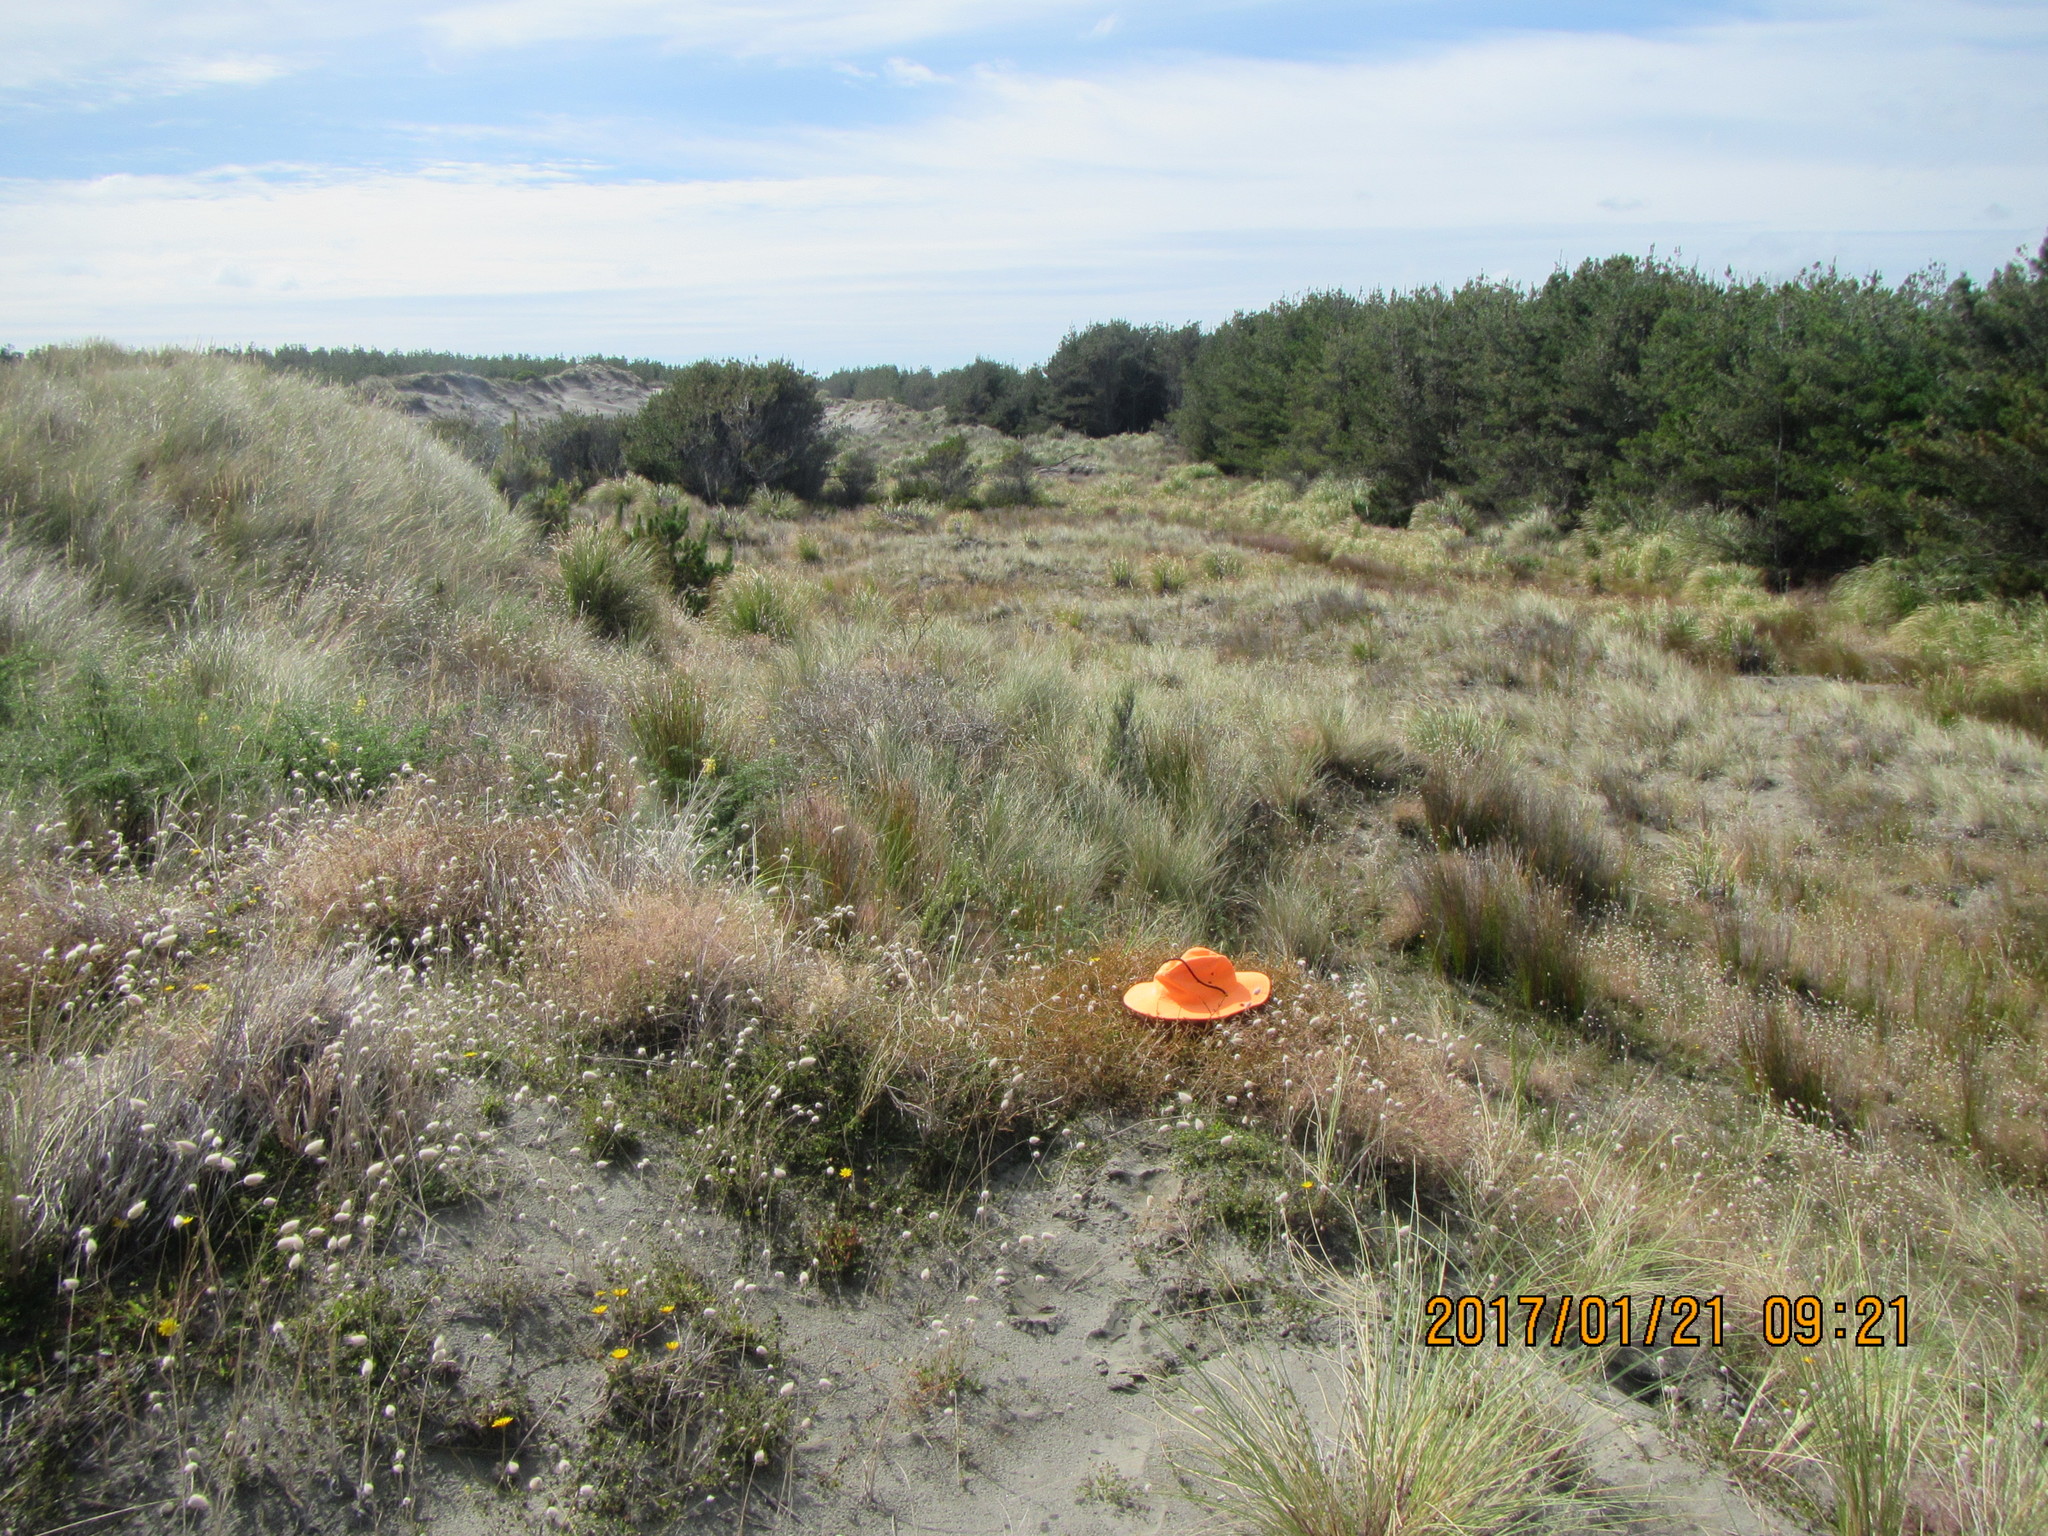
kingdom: Plantae
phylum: Tracheophyta
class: Magnoliopsida
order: Gentianales
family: Rubiaceae
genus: Coprosma
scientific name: Coprosma acerosa
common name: Sand coprosma
